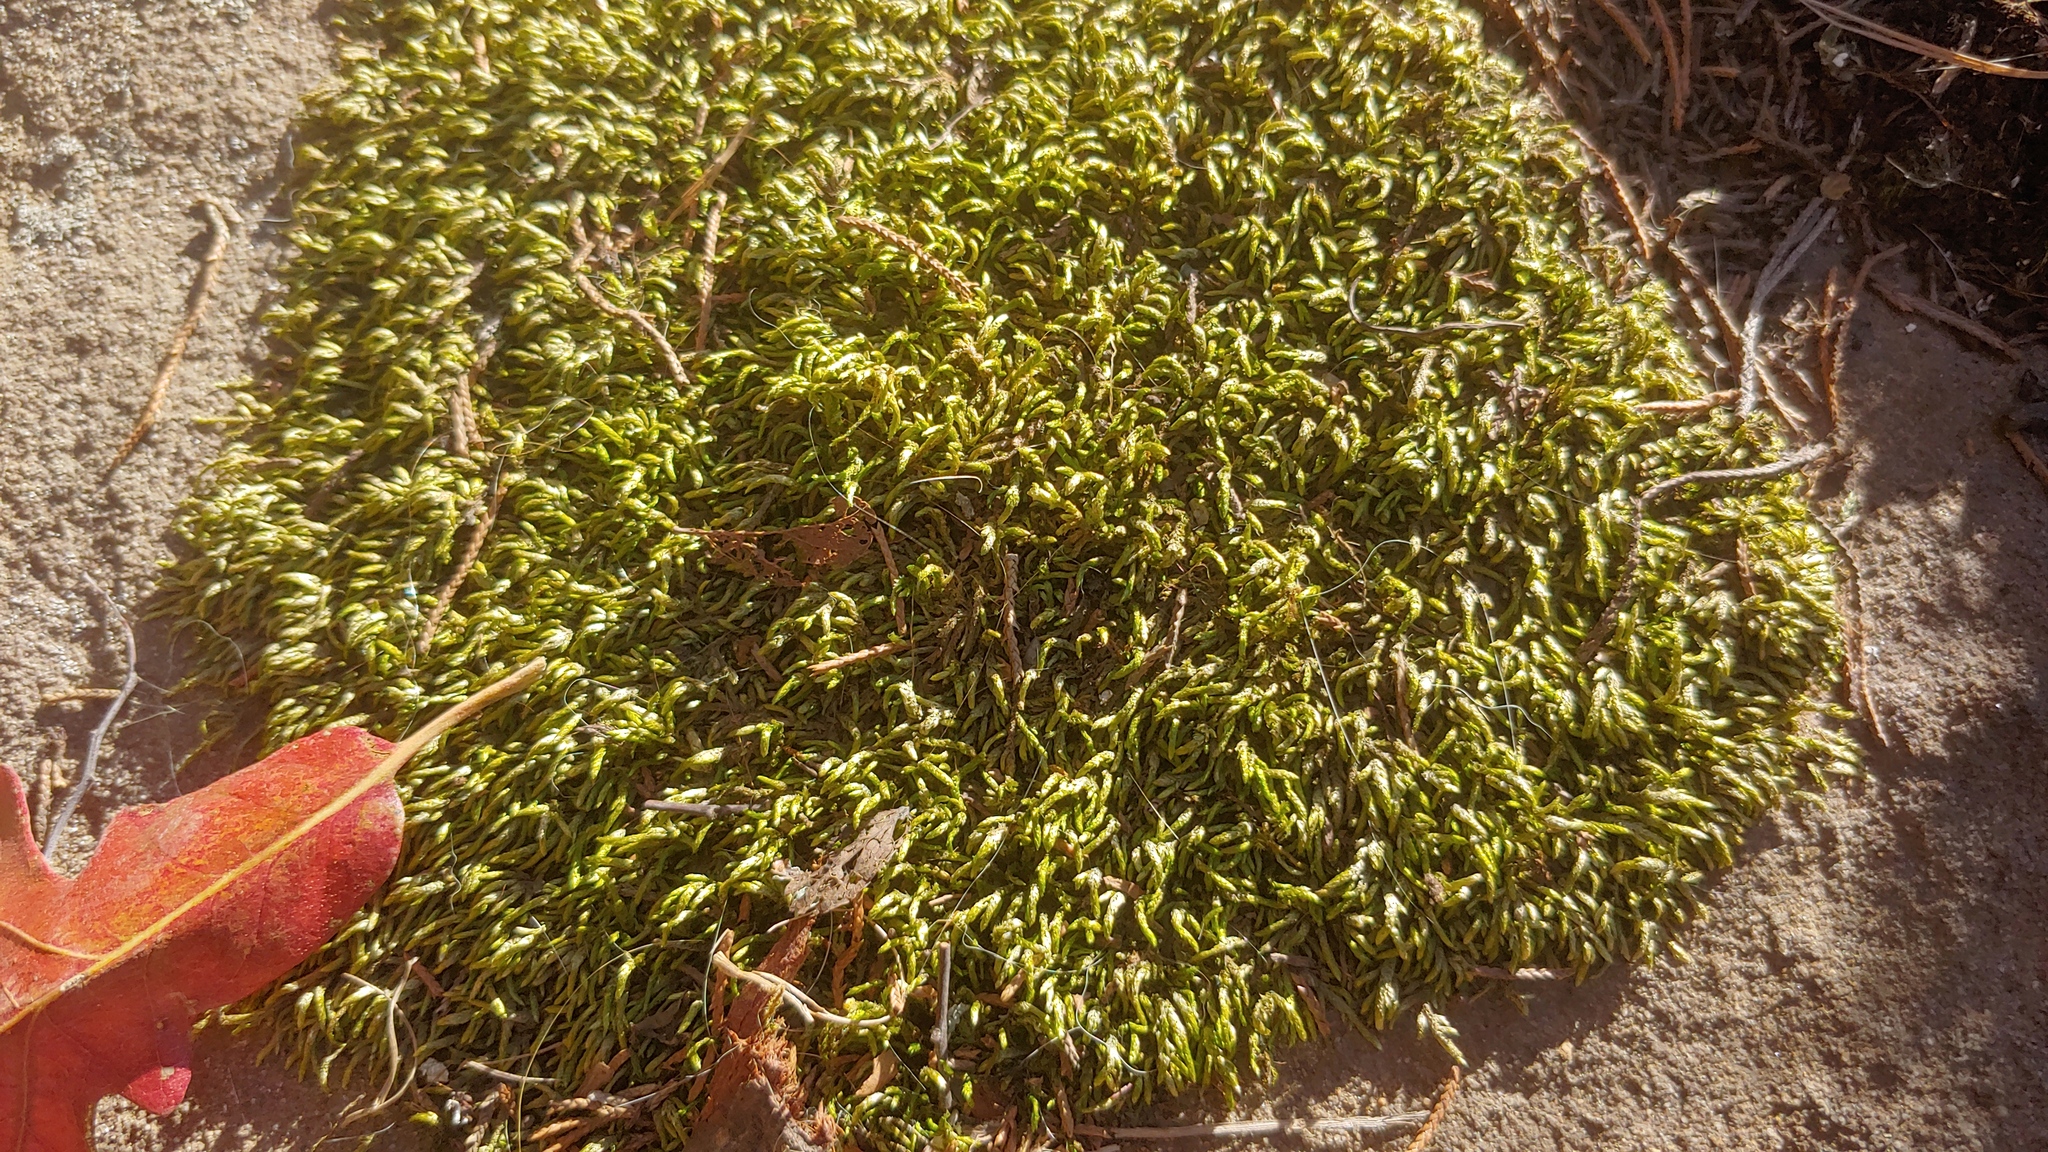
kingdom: Plantae
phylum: Bryophyta
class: Bryopsida
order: Hypnales
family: Entodontaceae
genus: Entodon
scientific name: Entodon seductrix
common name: Round-stemmed entodon moss
